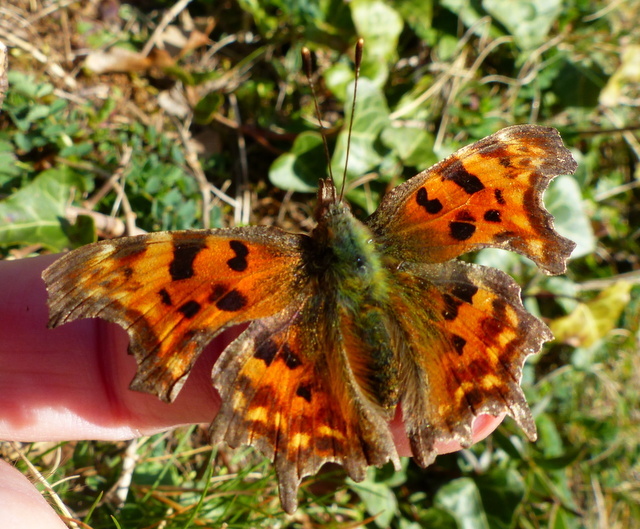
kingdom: Animalia
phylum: Arthropoda
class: Insecta
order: Lepidoptera
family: Nymphalidae
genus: Polygonia
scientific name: Polygonia c-album
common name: Comma
